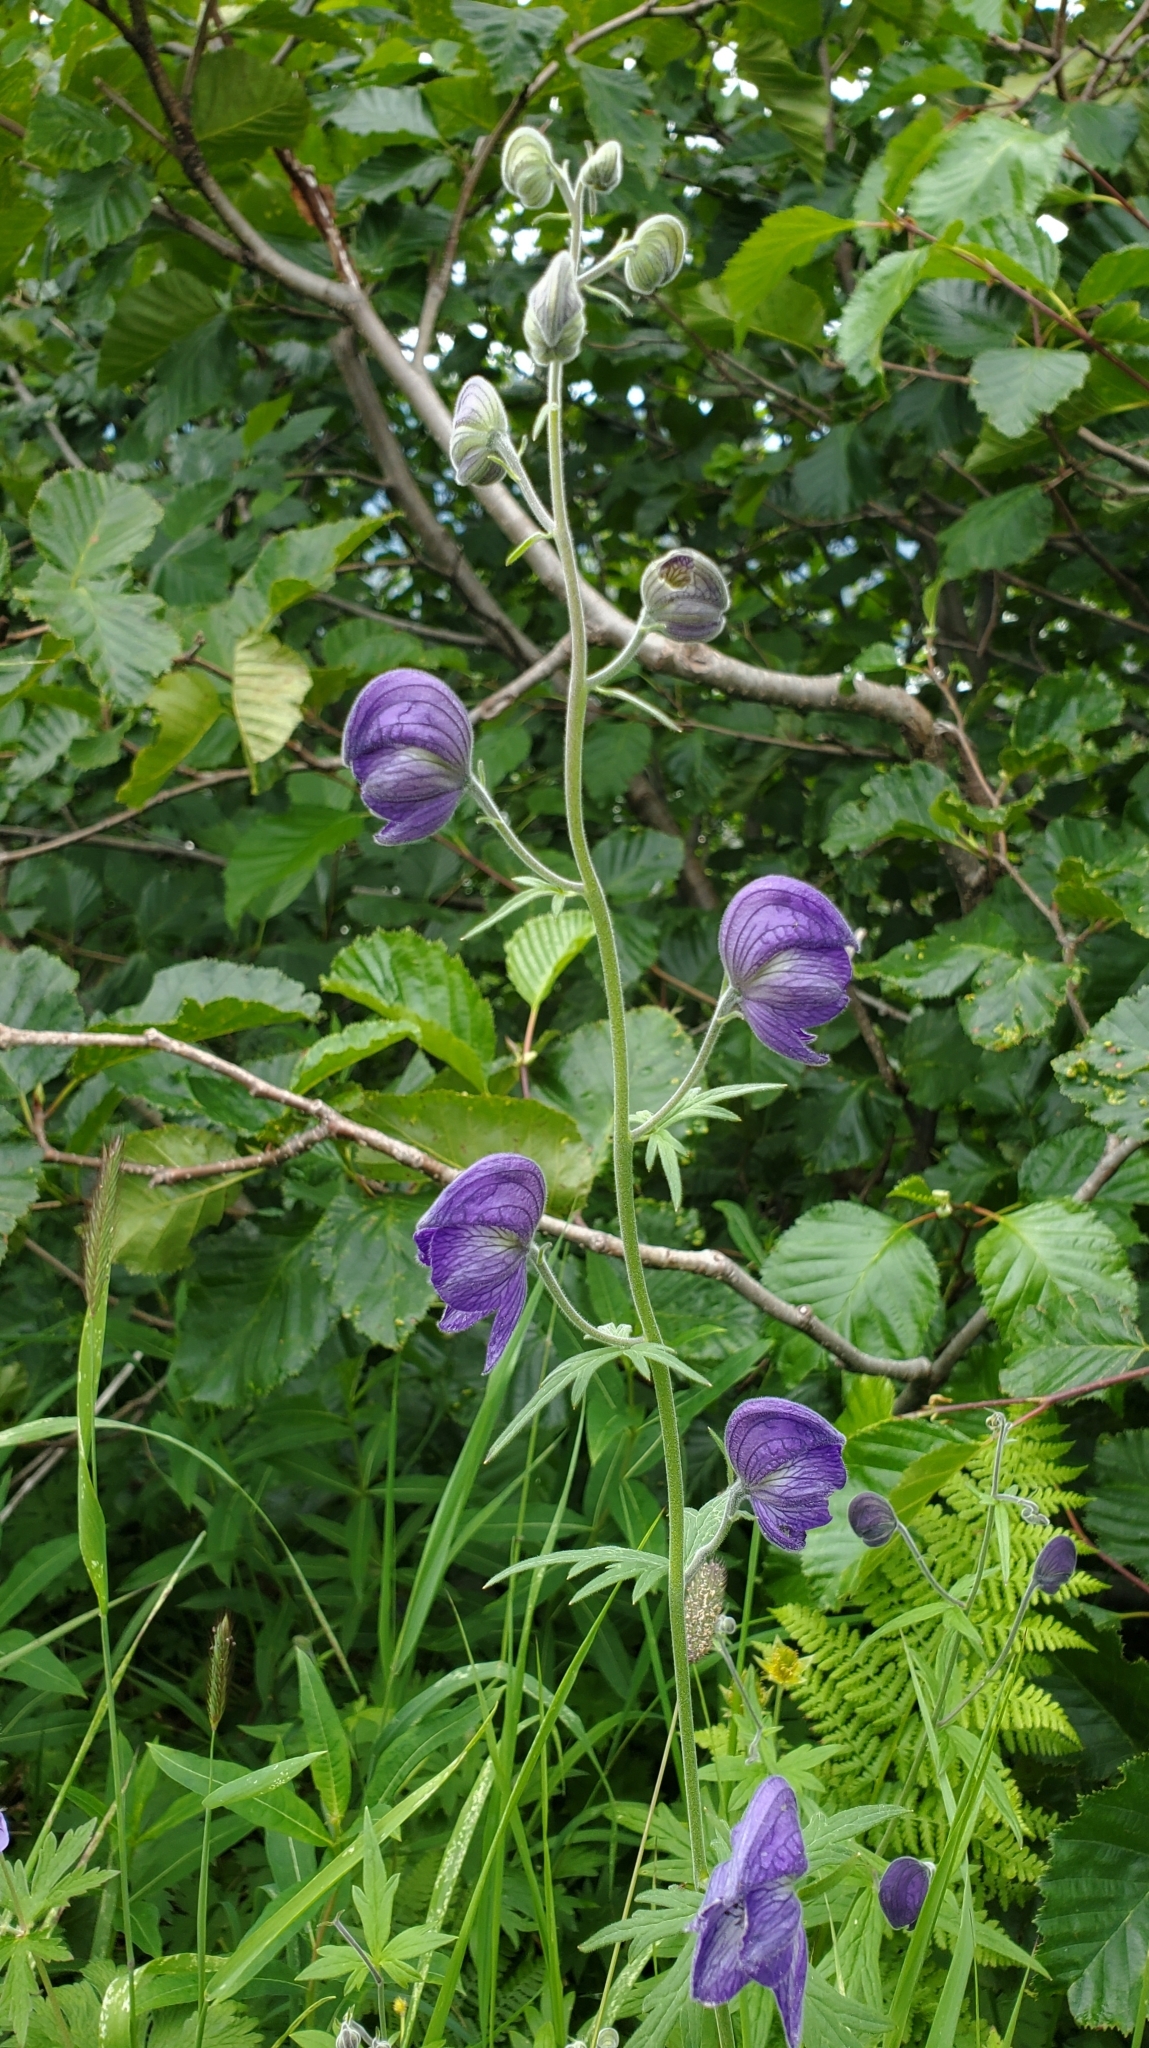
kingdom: Plantae
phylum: Tracheophyta
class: Magnoliopsida
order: Ranunculales
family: Ranunculaceae
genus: Aconitum
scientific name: Aconitum delphiniifolium
